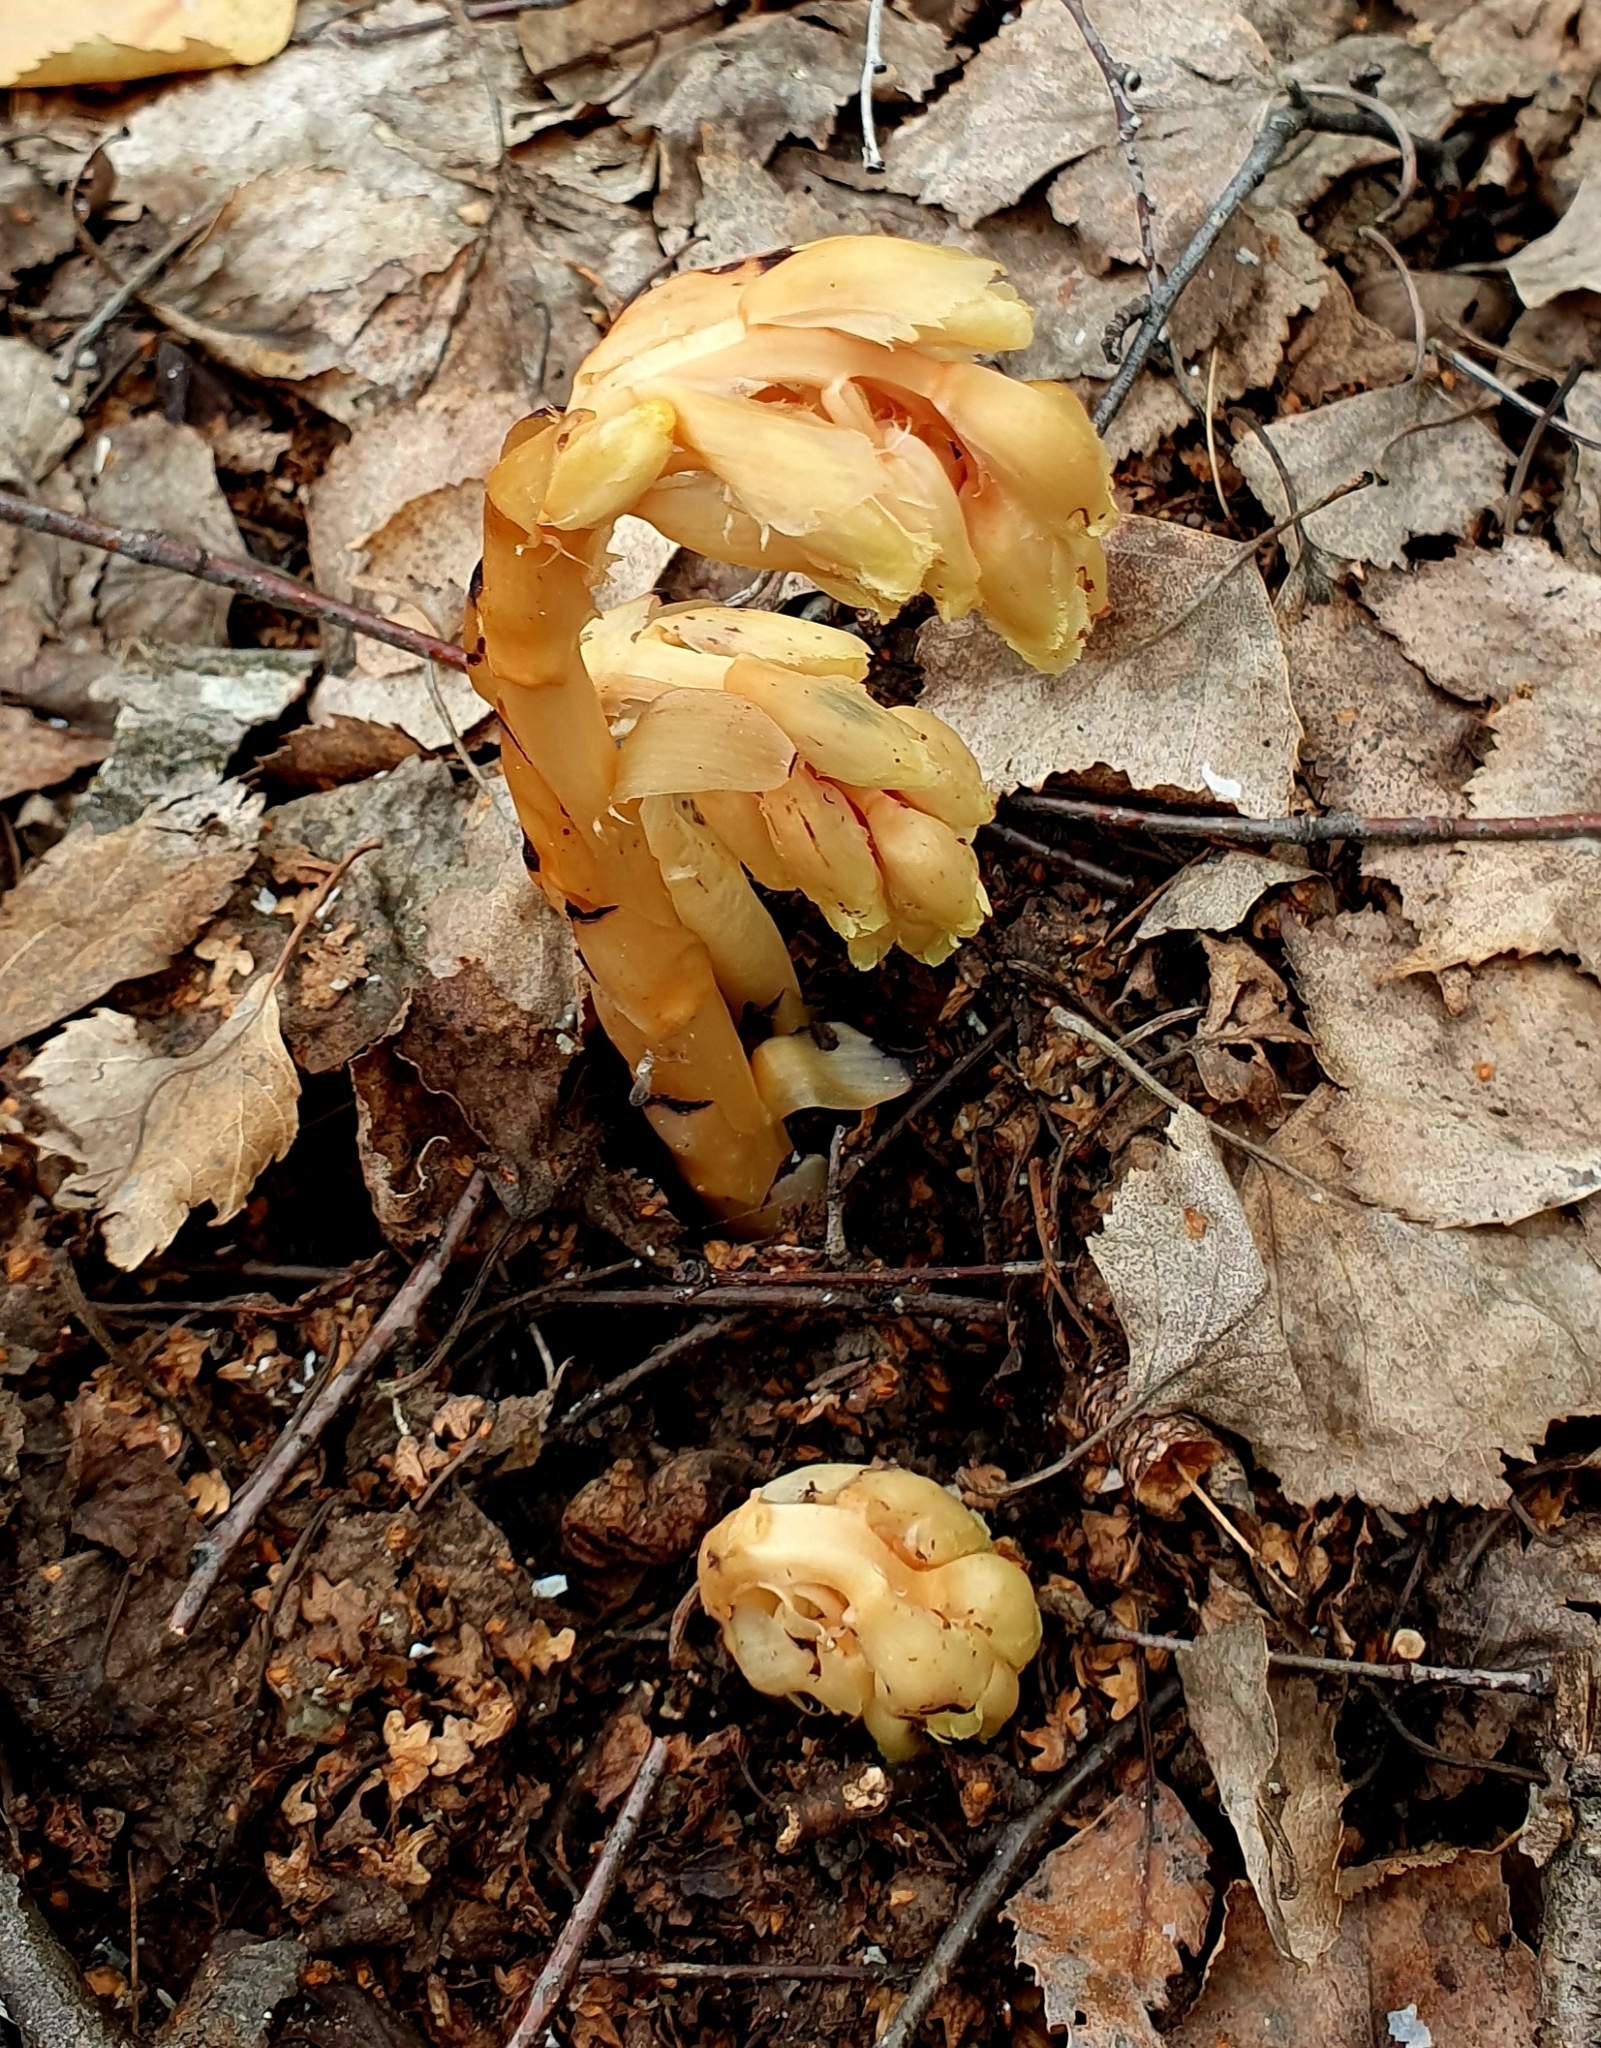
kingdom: Plantae
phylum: Tracheophyta
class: Magnoliopsida
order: Ericales
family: Ericaceae
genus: Hypopitys
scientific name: Hypopitys monotropa
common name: Yellow bird's-nest
